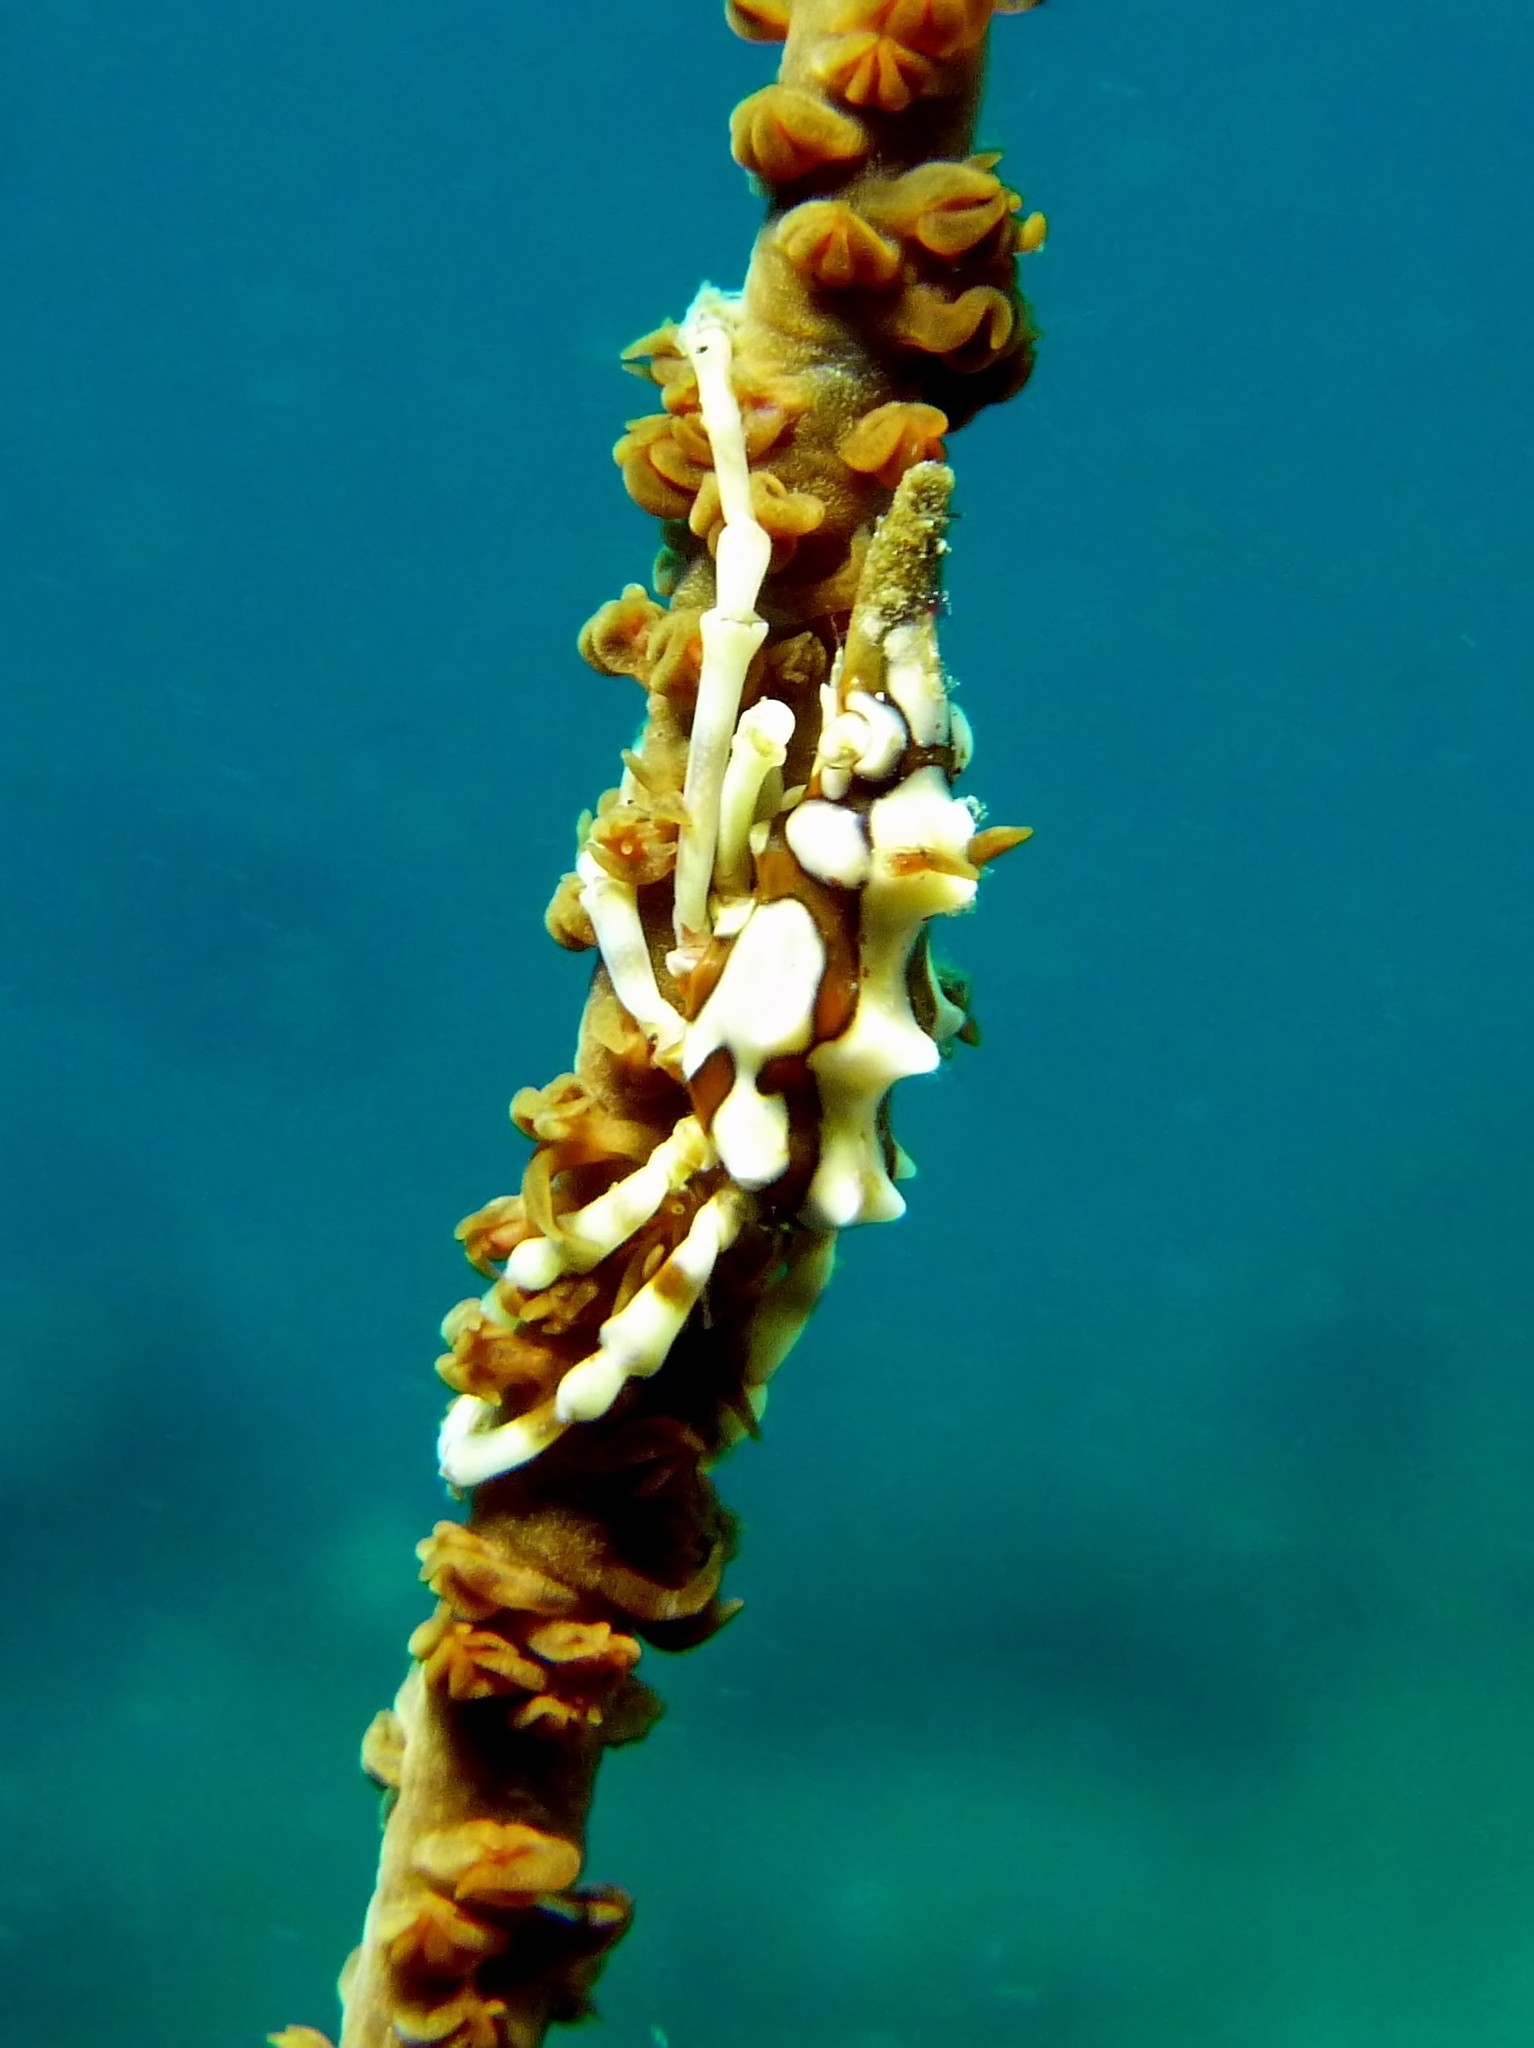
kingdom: Animalia
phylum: Arthropoda
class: Malacostraca
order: Decapoda
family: Epialtidae
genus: Xenocarcinus
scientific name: Xenocarcinus tuberculatus
